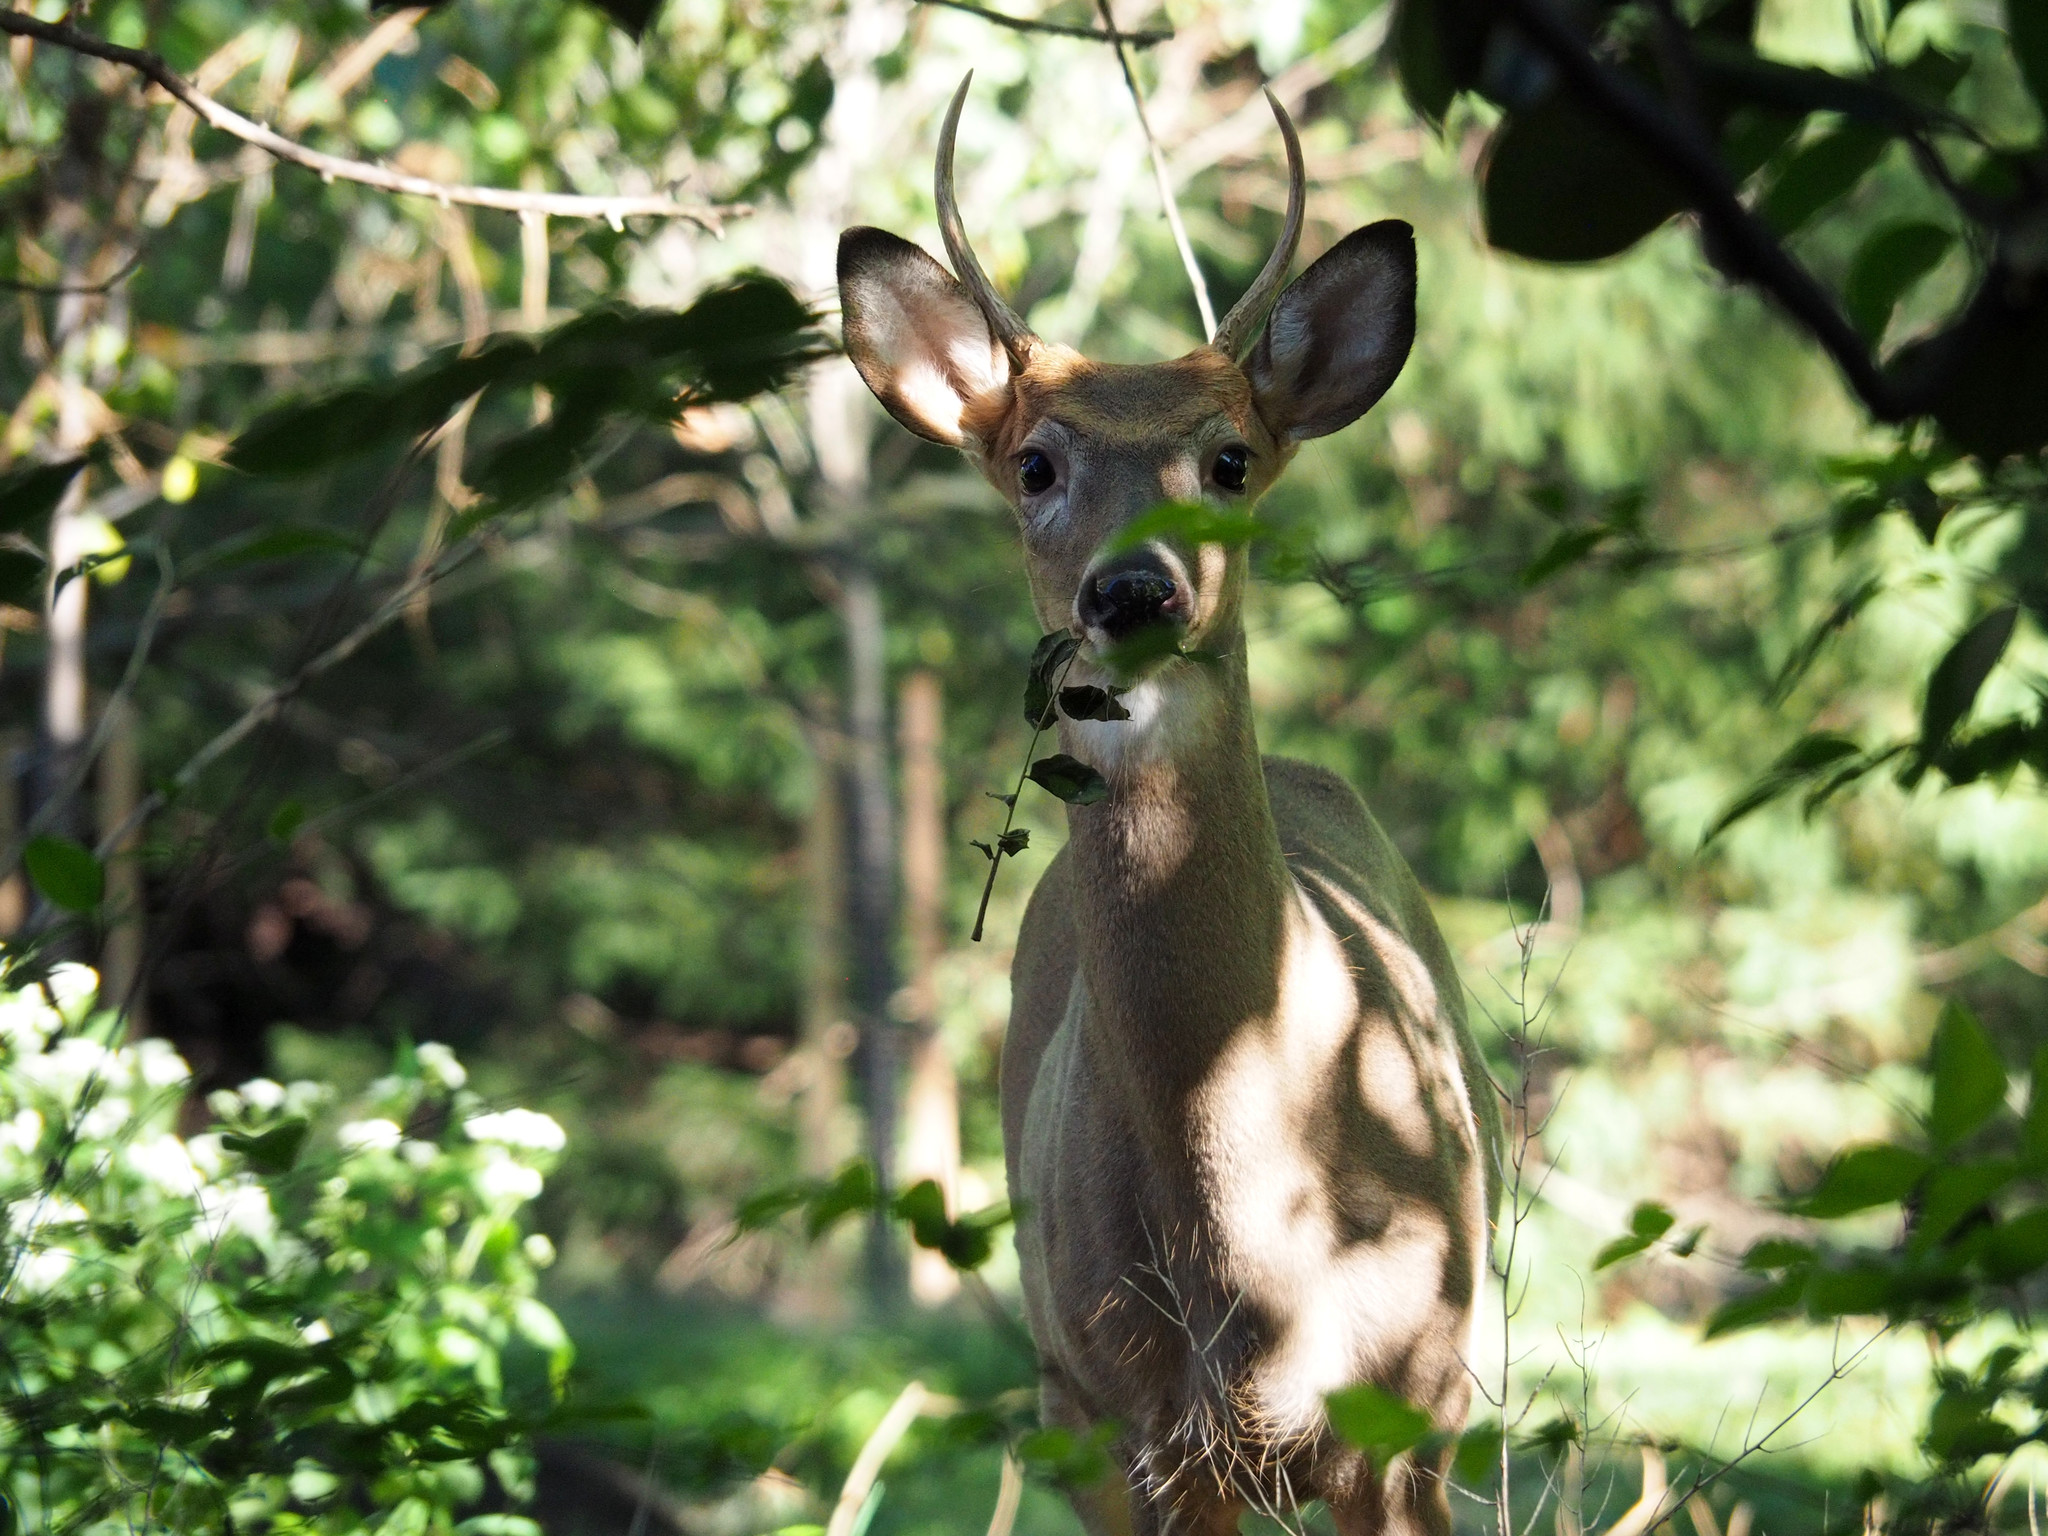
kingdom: Animalia
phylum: Chordata
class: Mammalia
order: Artiodactyla
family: Cervidae
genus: Odocoileus
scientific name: Odocoileus virginianus
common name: White-tailed deer
